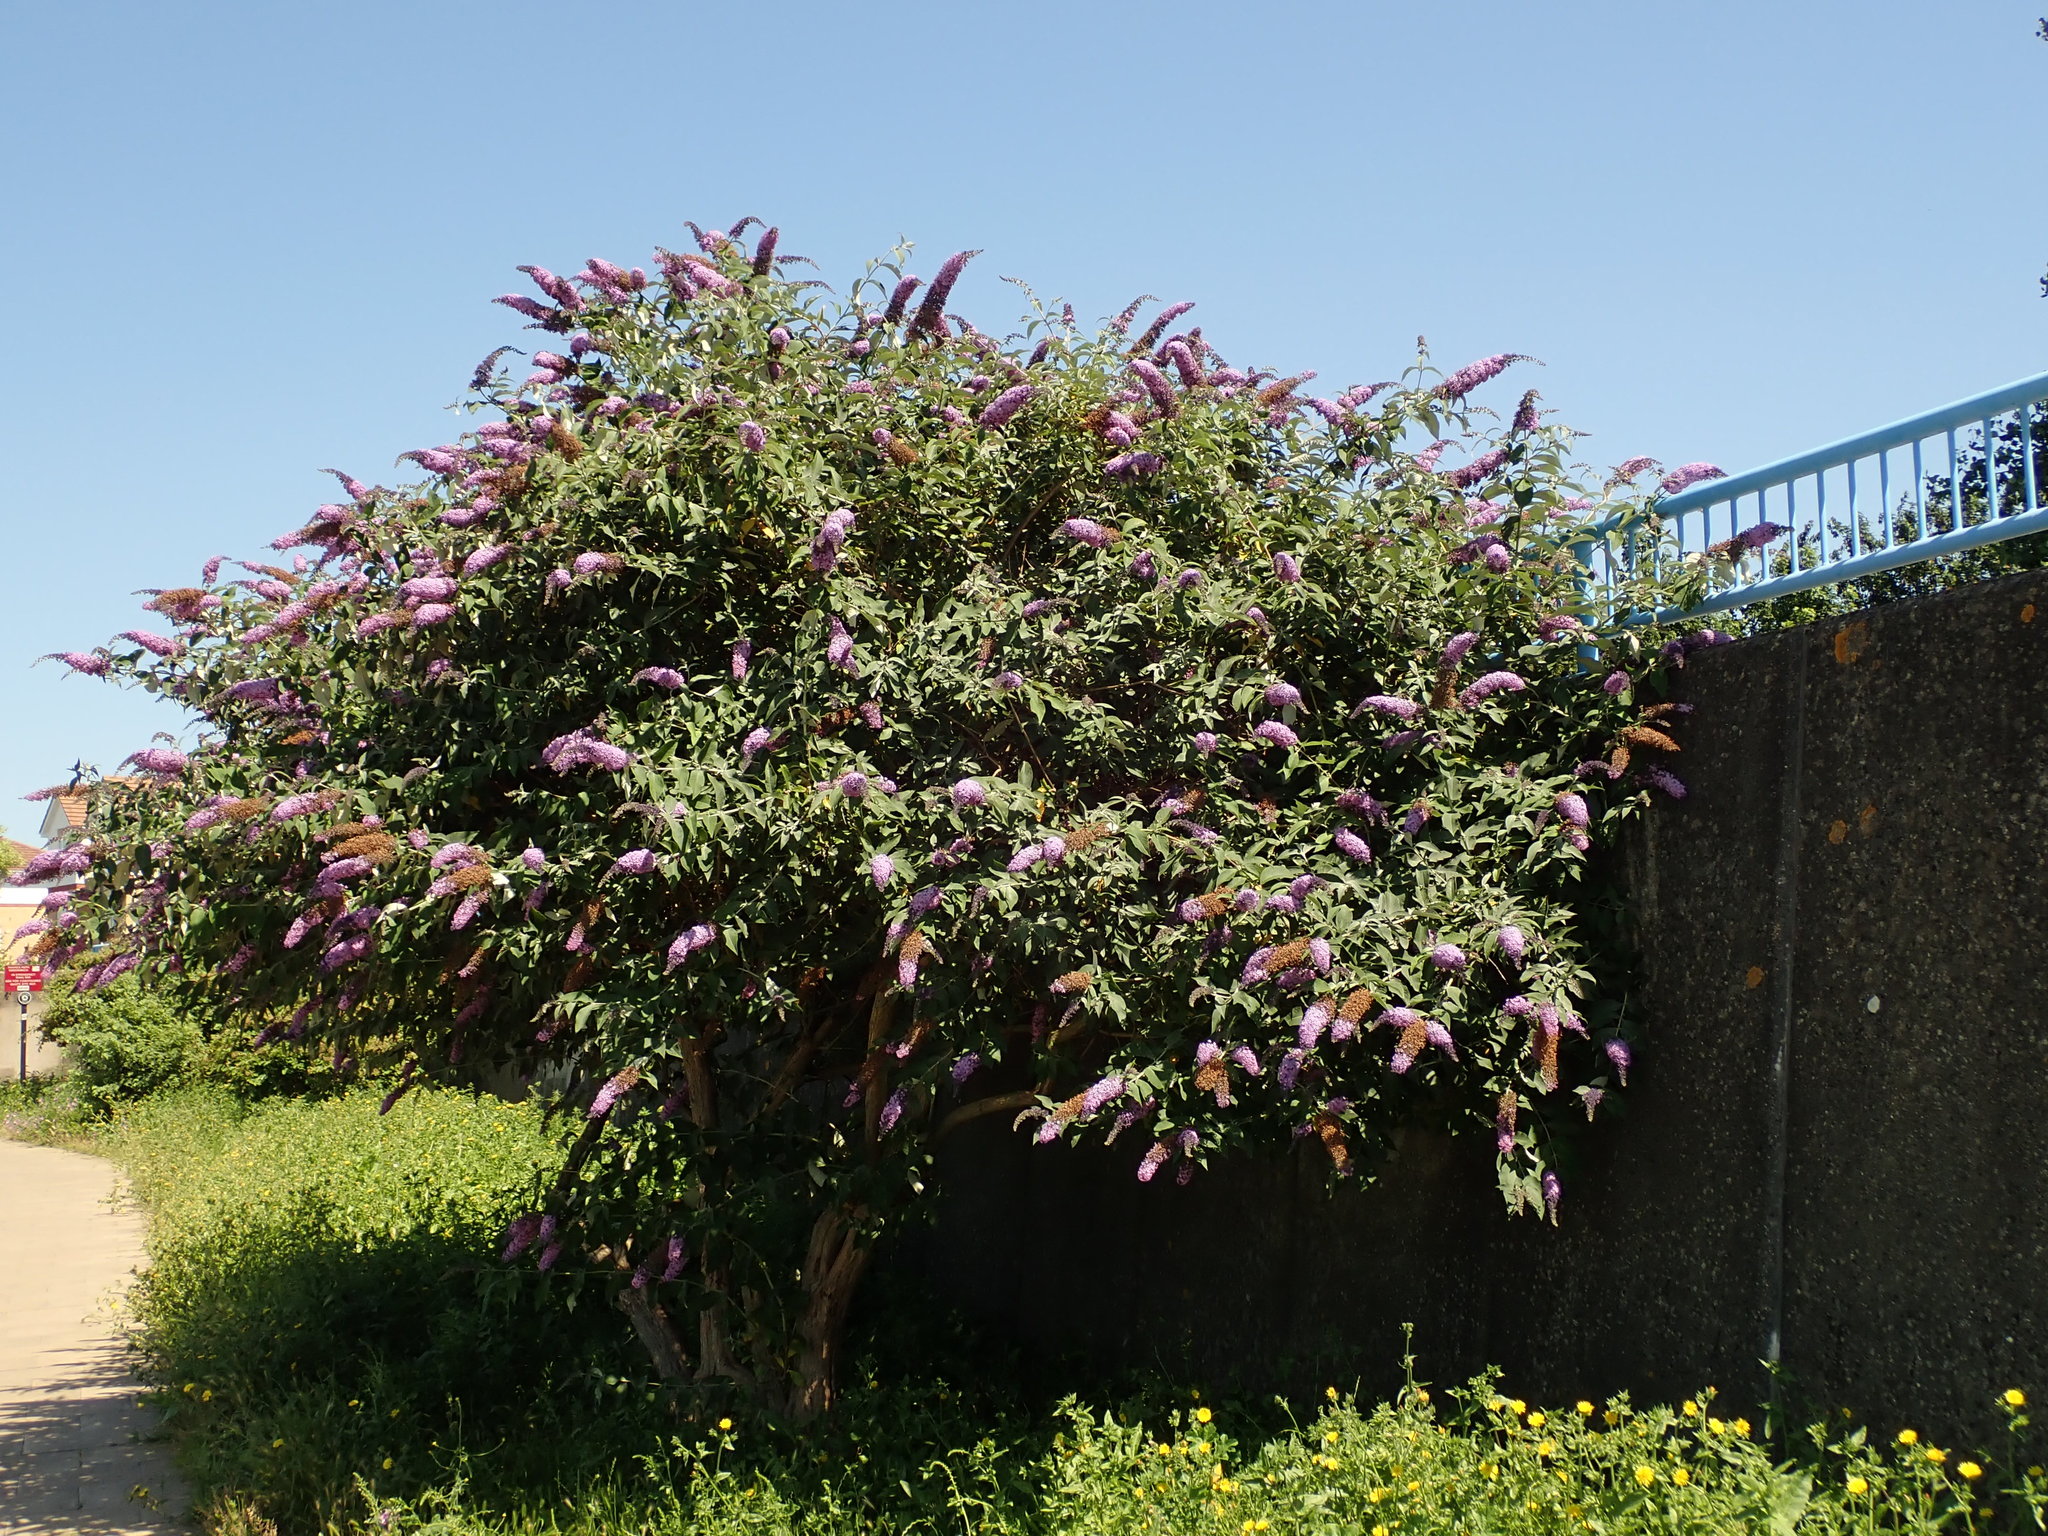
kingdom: Plantae
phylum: Tracheophyta
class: Magnoliopsida
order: Lamiales
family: Scrophulariaceae
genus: Buddleja
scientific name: Buddleja davidii
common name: Butterfly-bush
